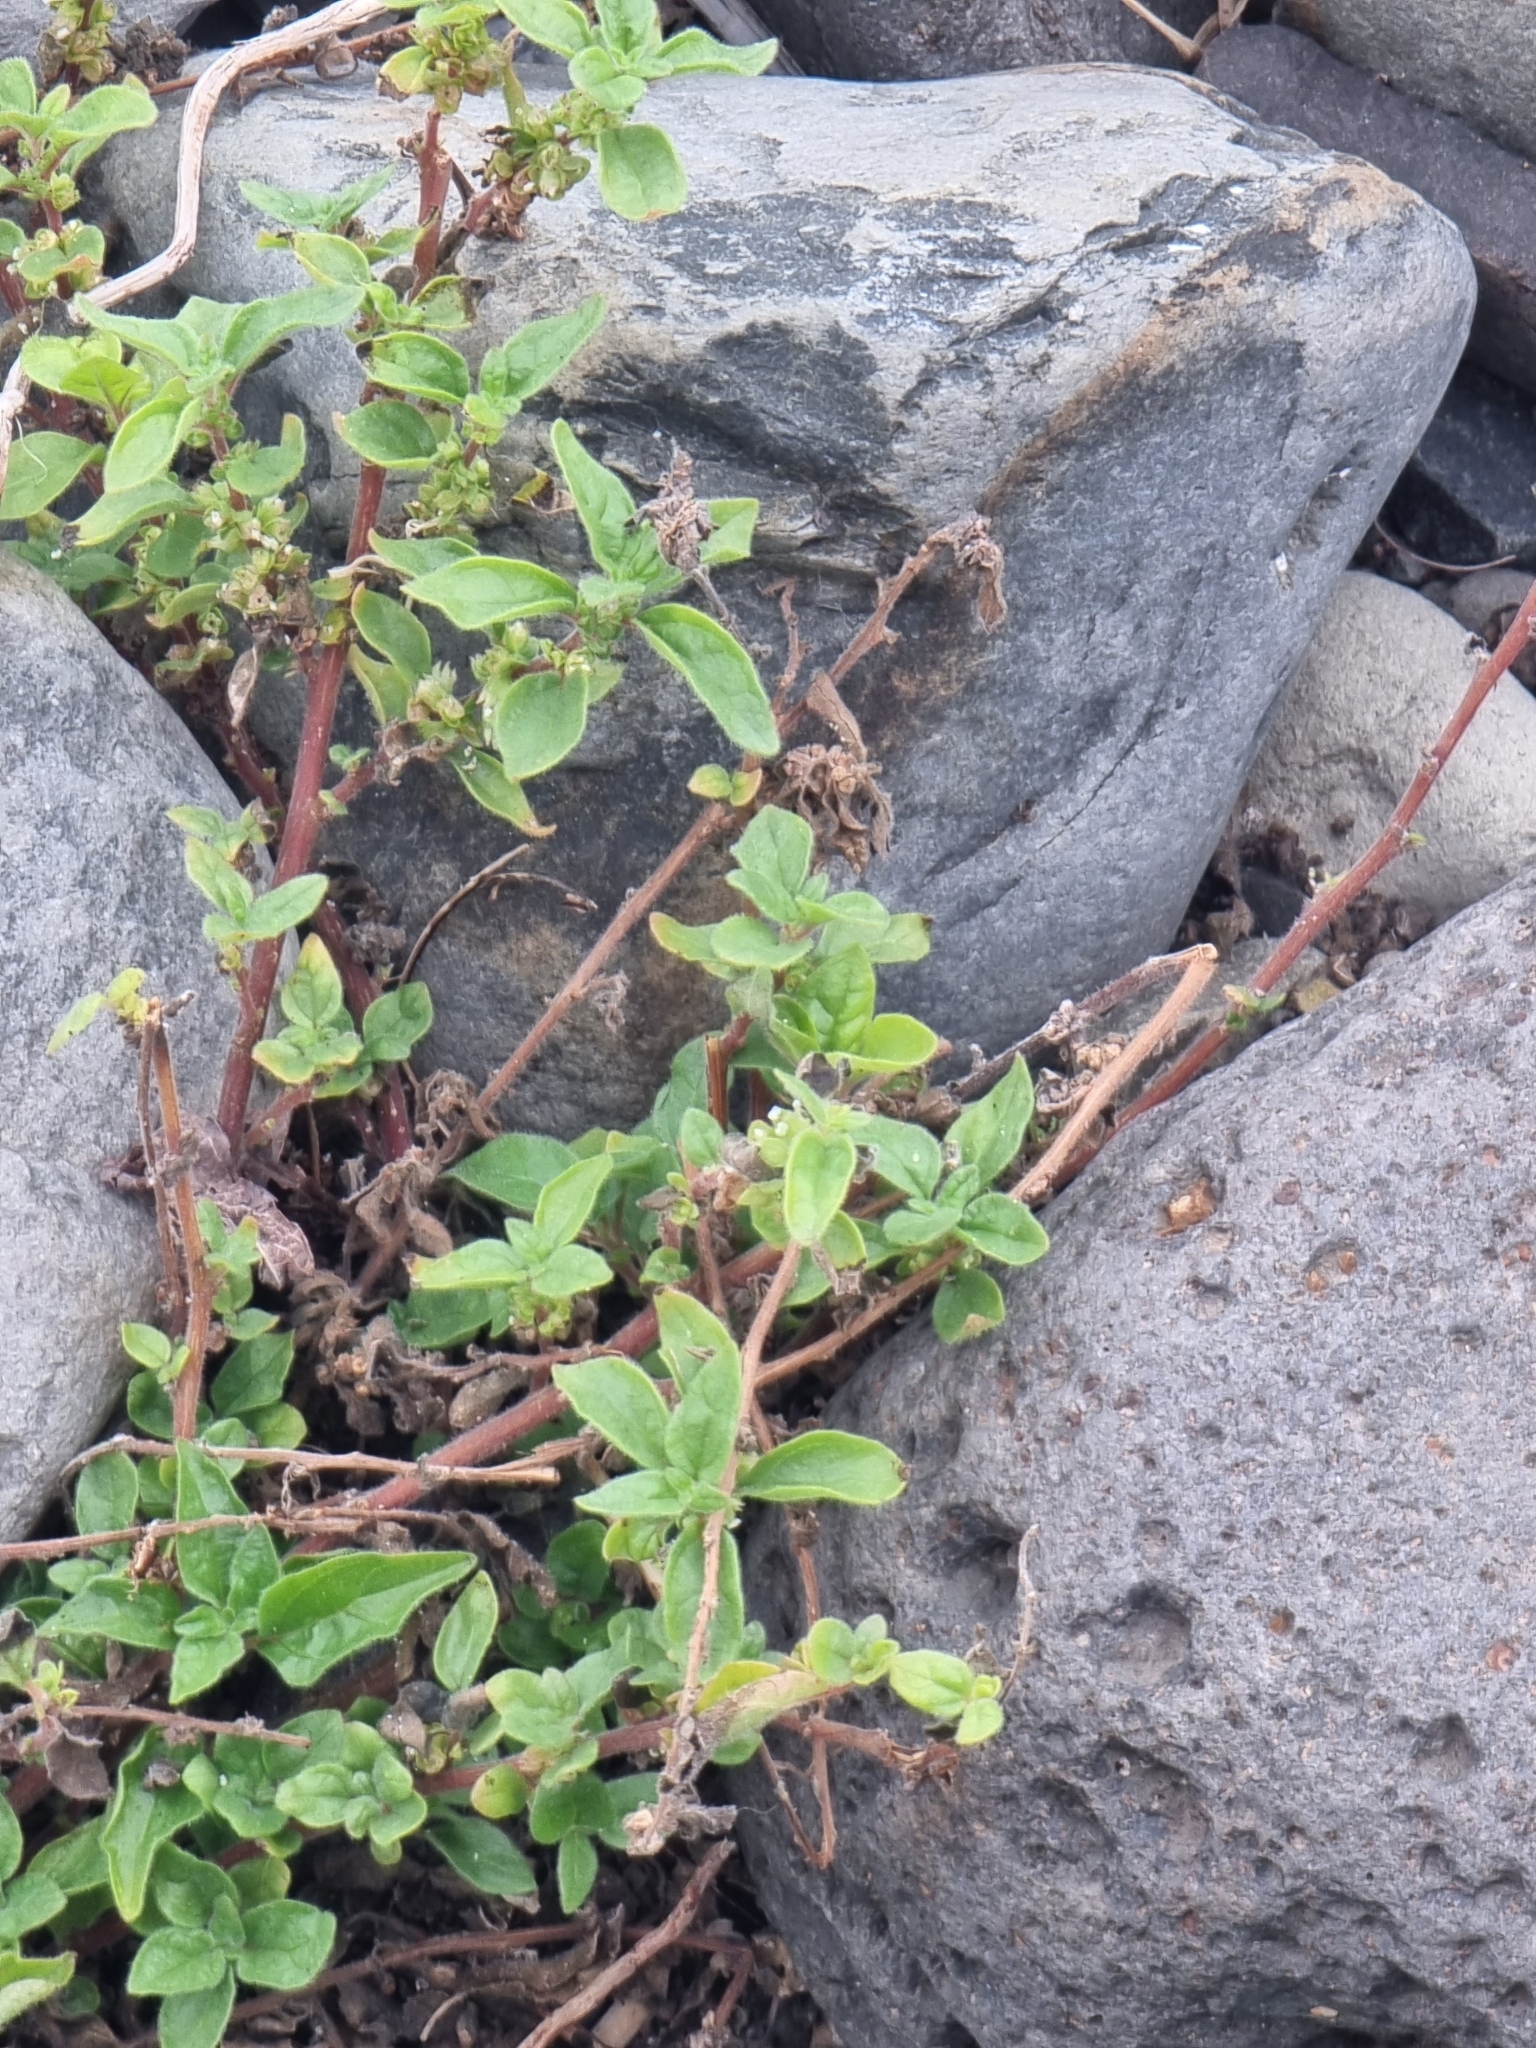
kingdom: Plantae
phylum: Tracheophyta
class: Magnoliopsida
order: Rosales
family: Urticaceae
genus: Parietaria
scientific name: Parietaria judaica
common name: Pellitory-of-the-wall
